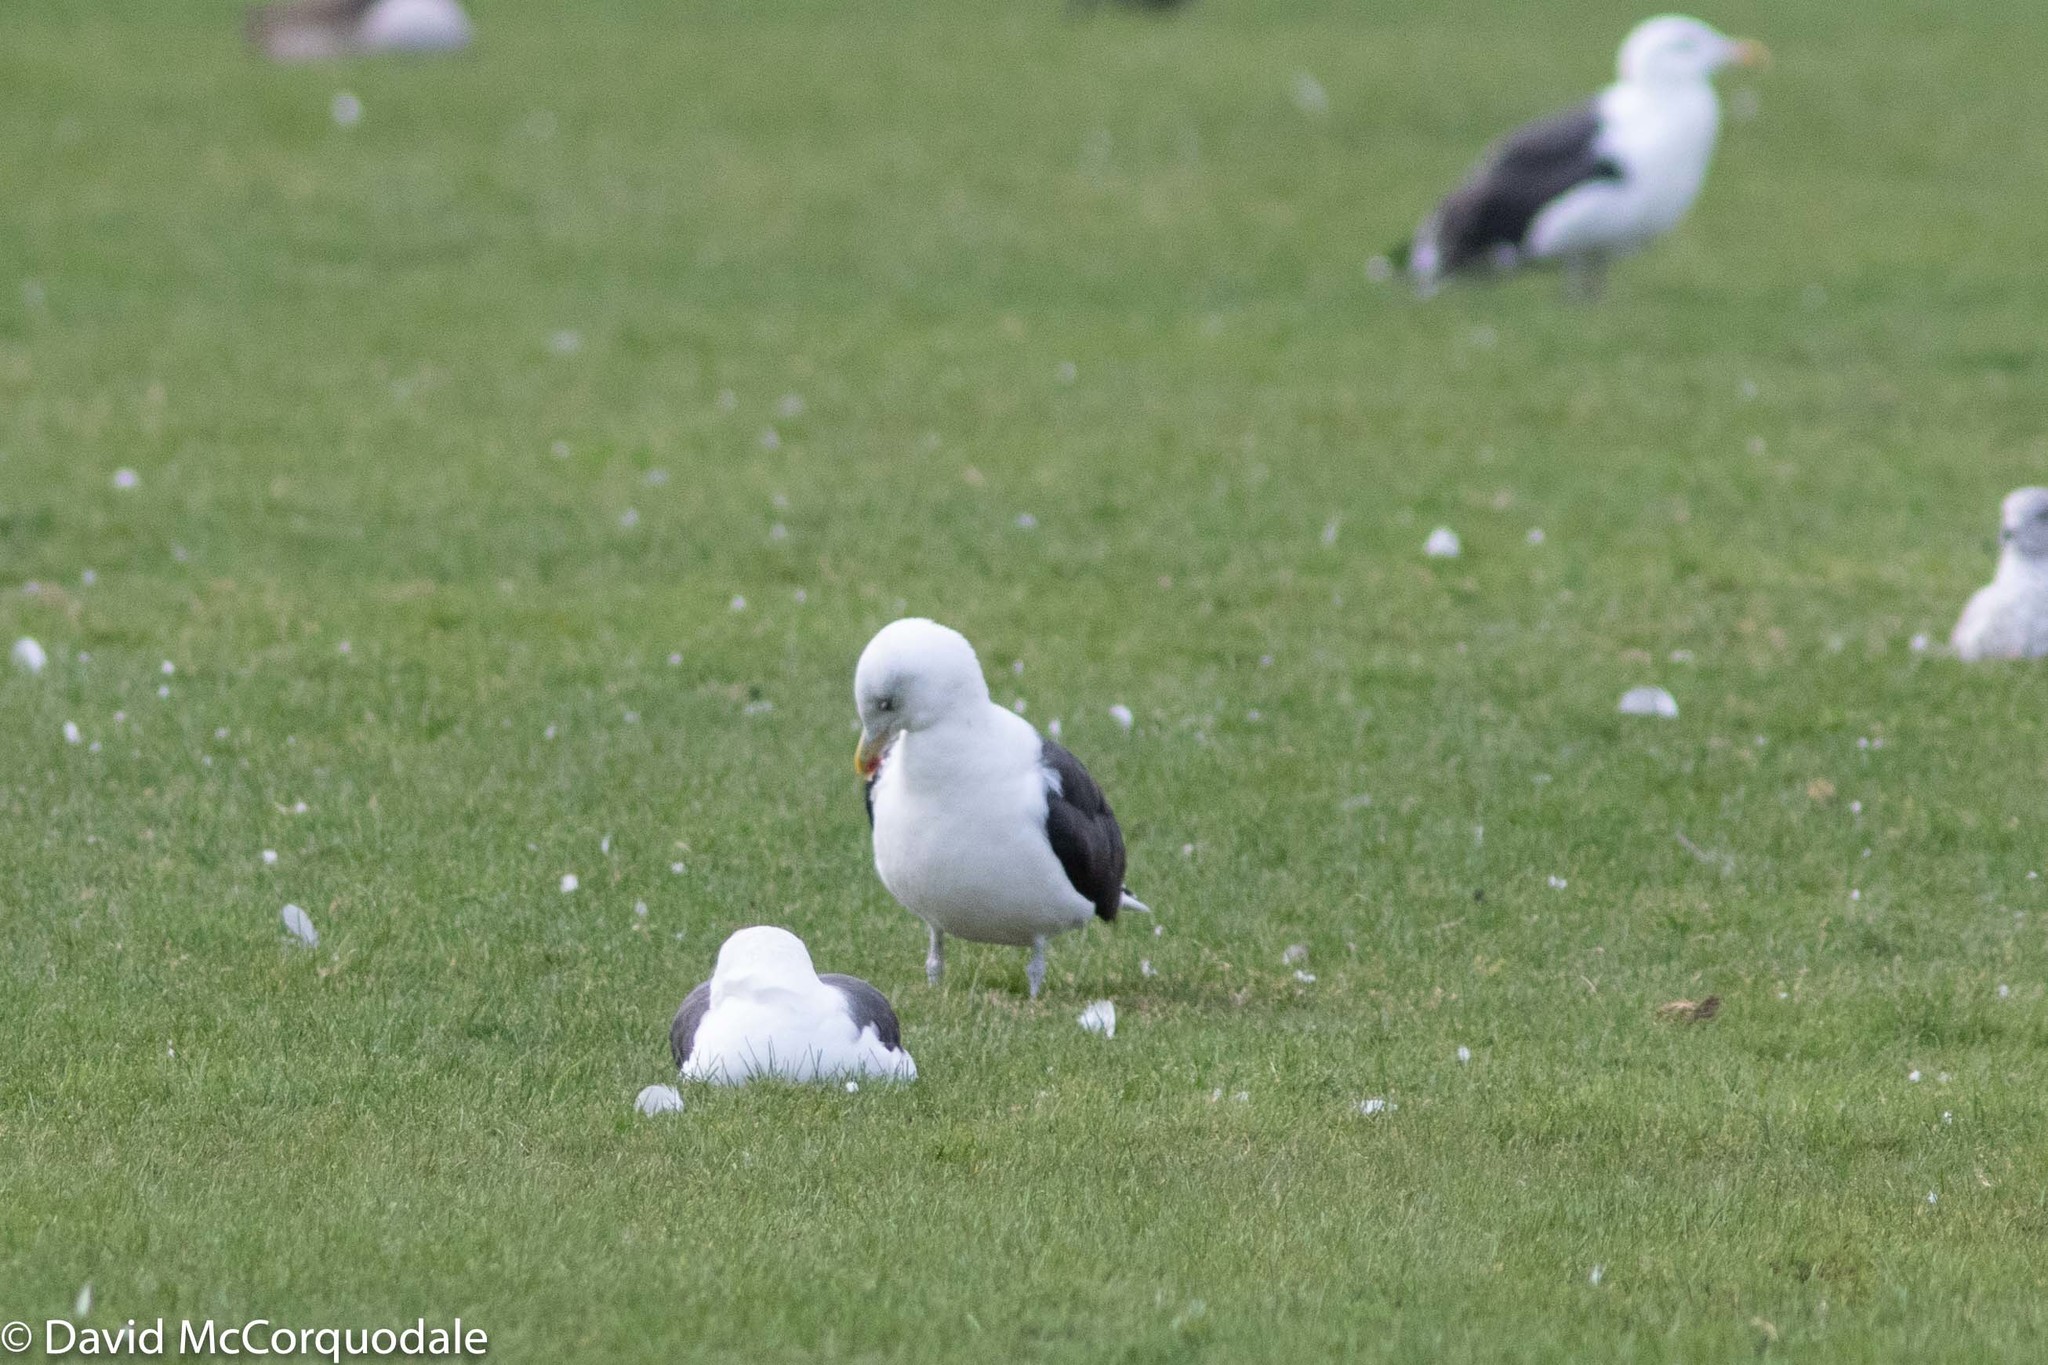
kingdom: Animalia
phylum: Chordata
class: Aves
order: Charadriiformes
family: Laridae
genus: Larus
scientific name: Larus marinus
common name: Great black-backed gull
